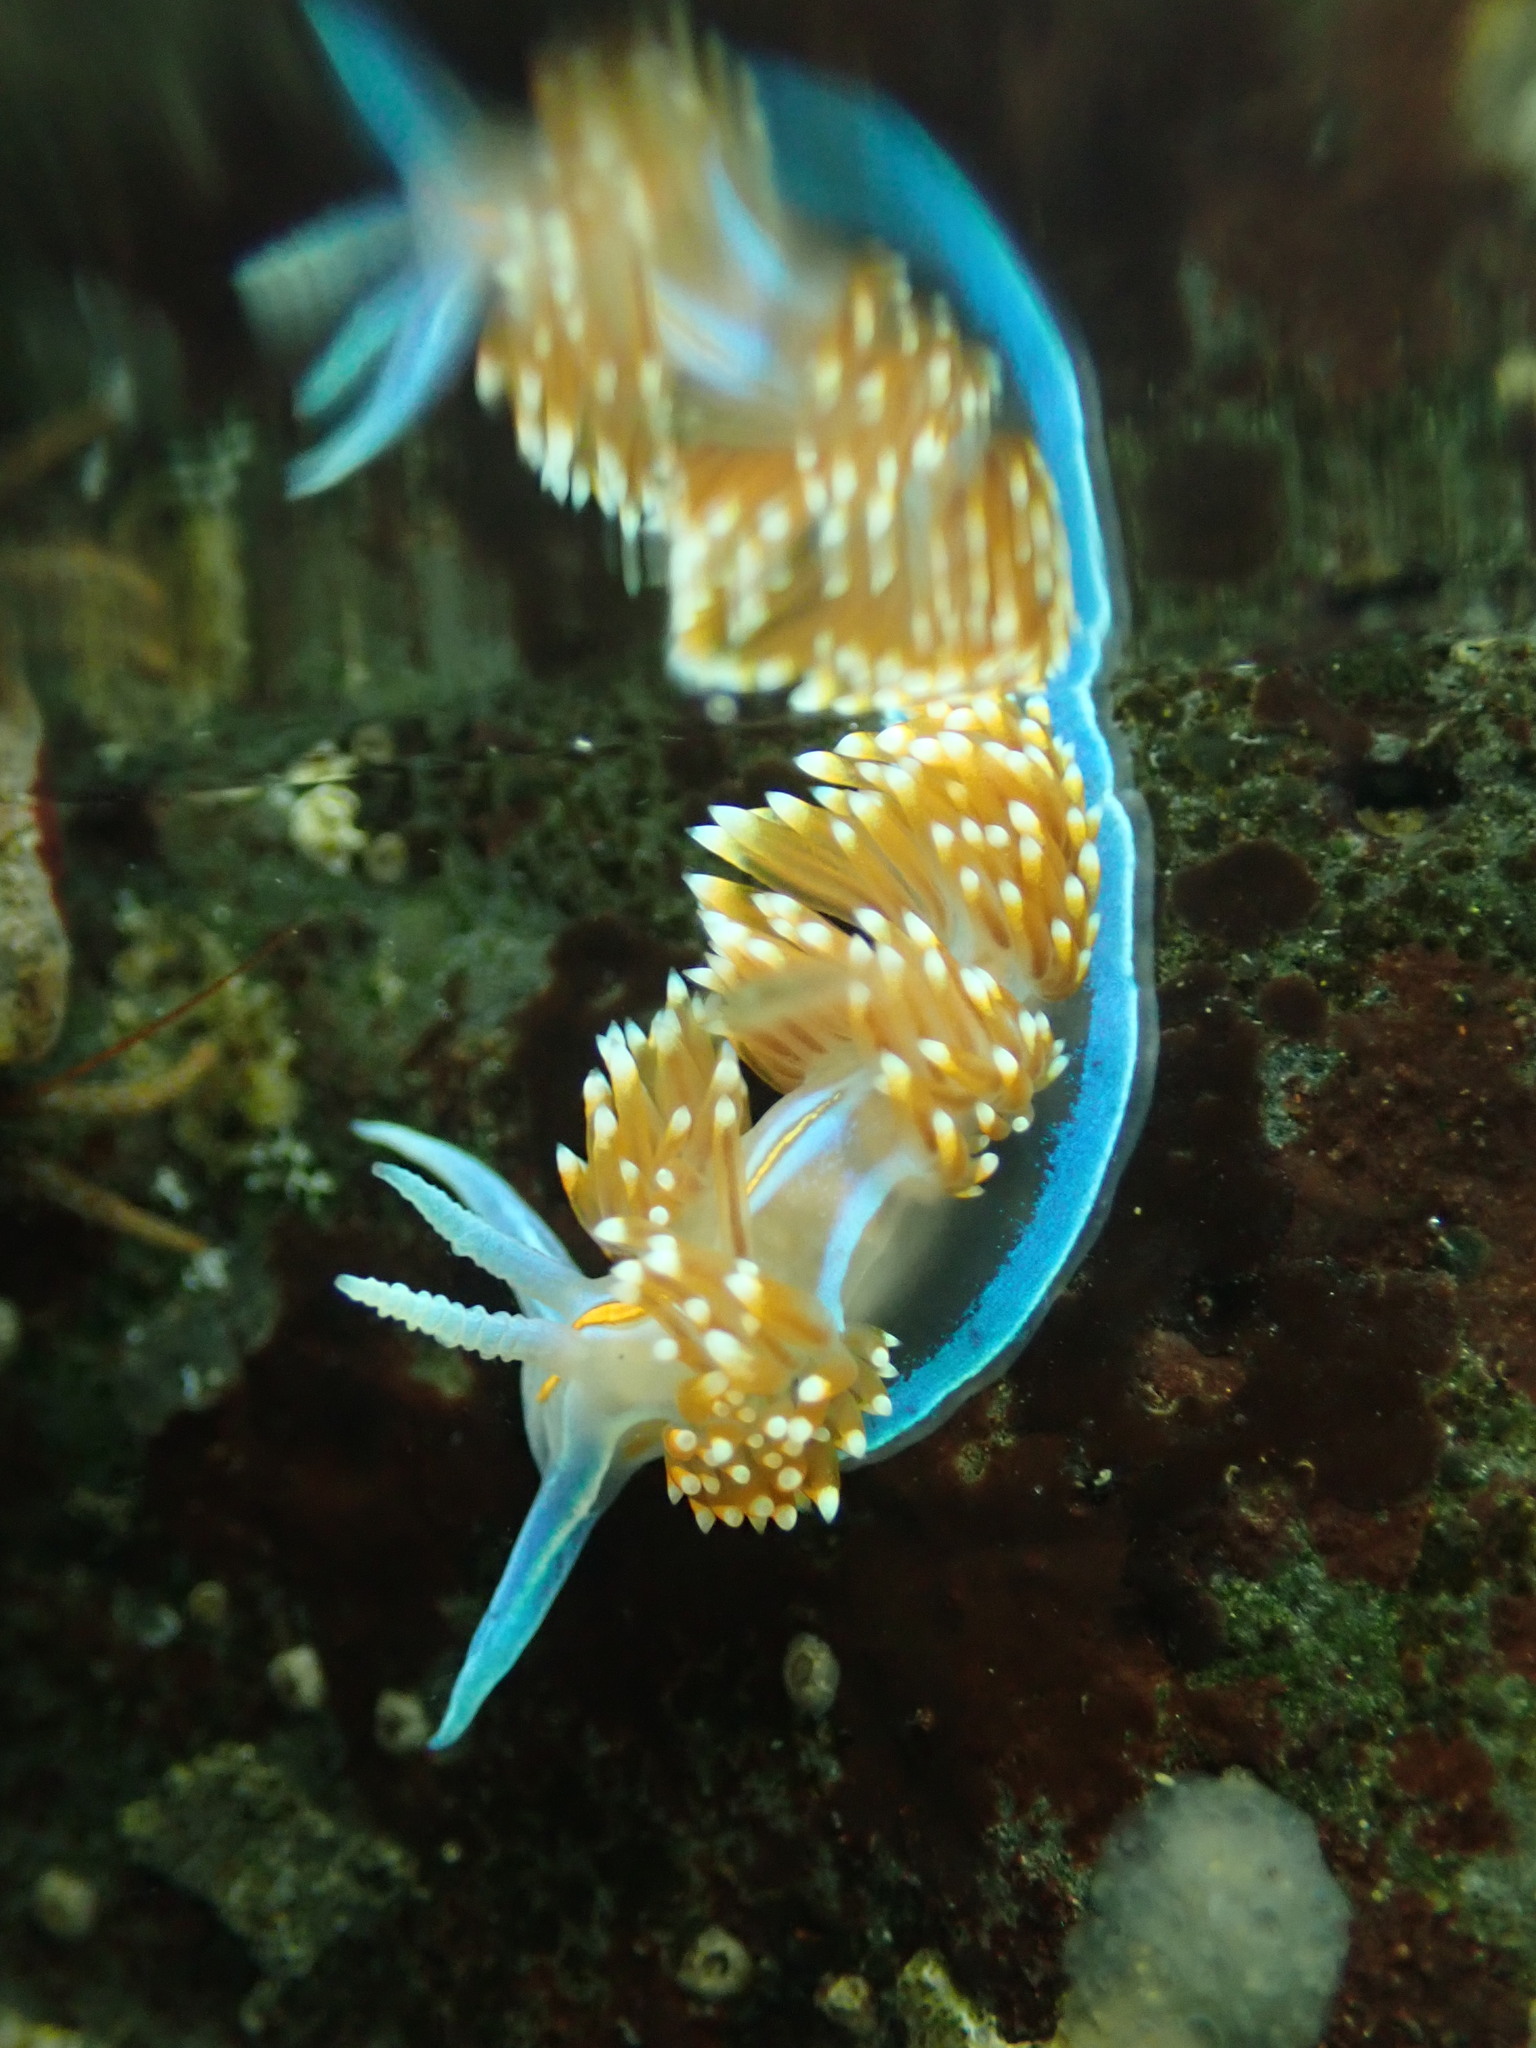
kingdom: Animalia
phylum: Mollusca
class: Gastropoda
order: Nudibranchia
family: Myrrhinidae
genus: Hermissenda
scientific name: Hermissenda opalescens
